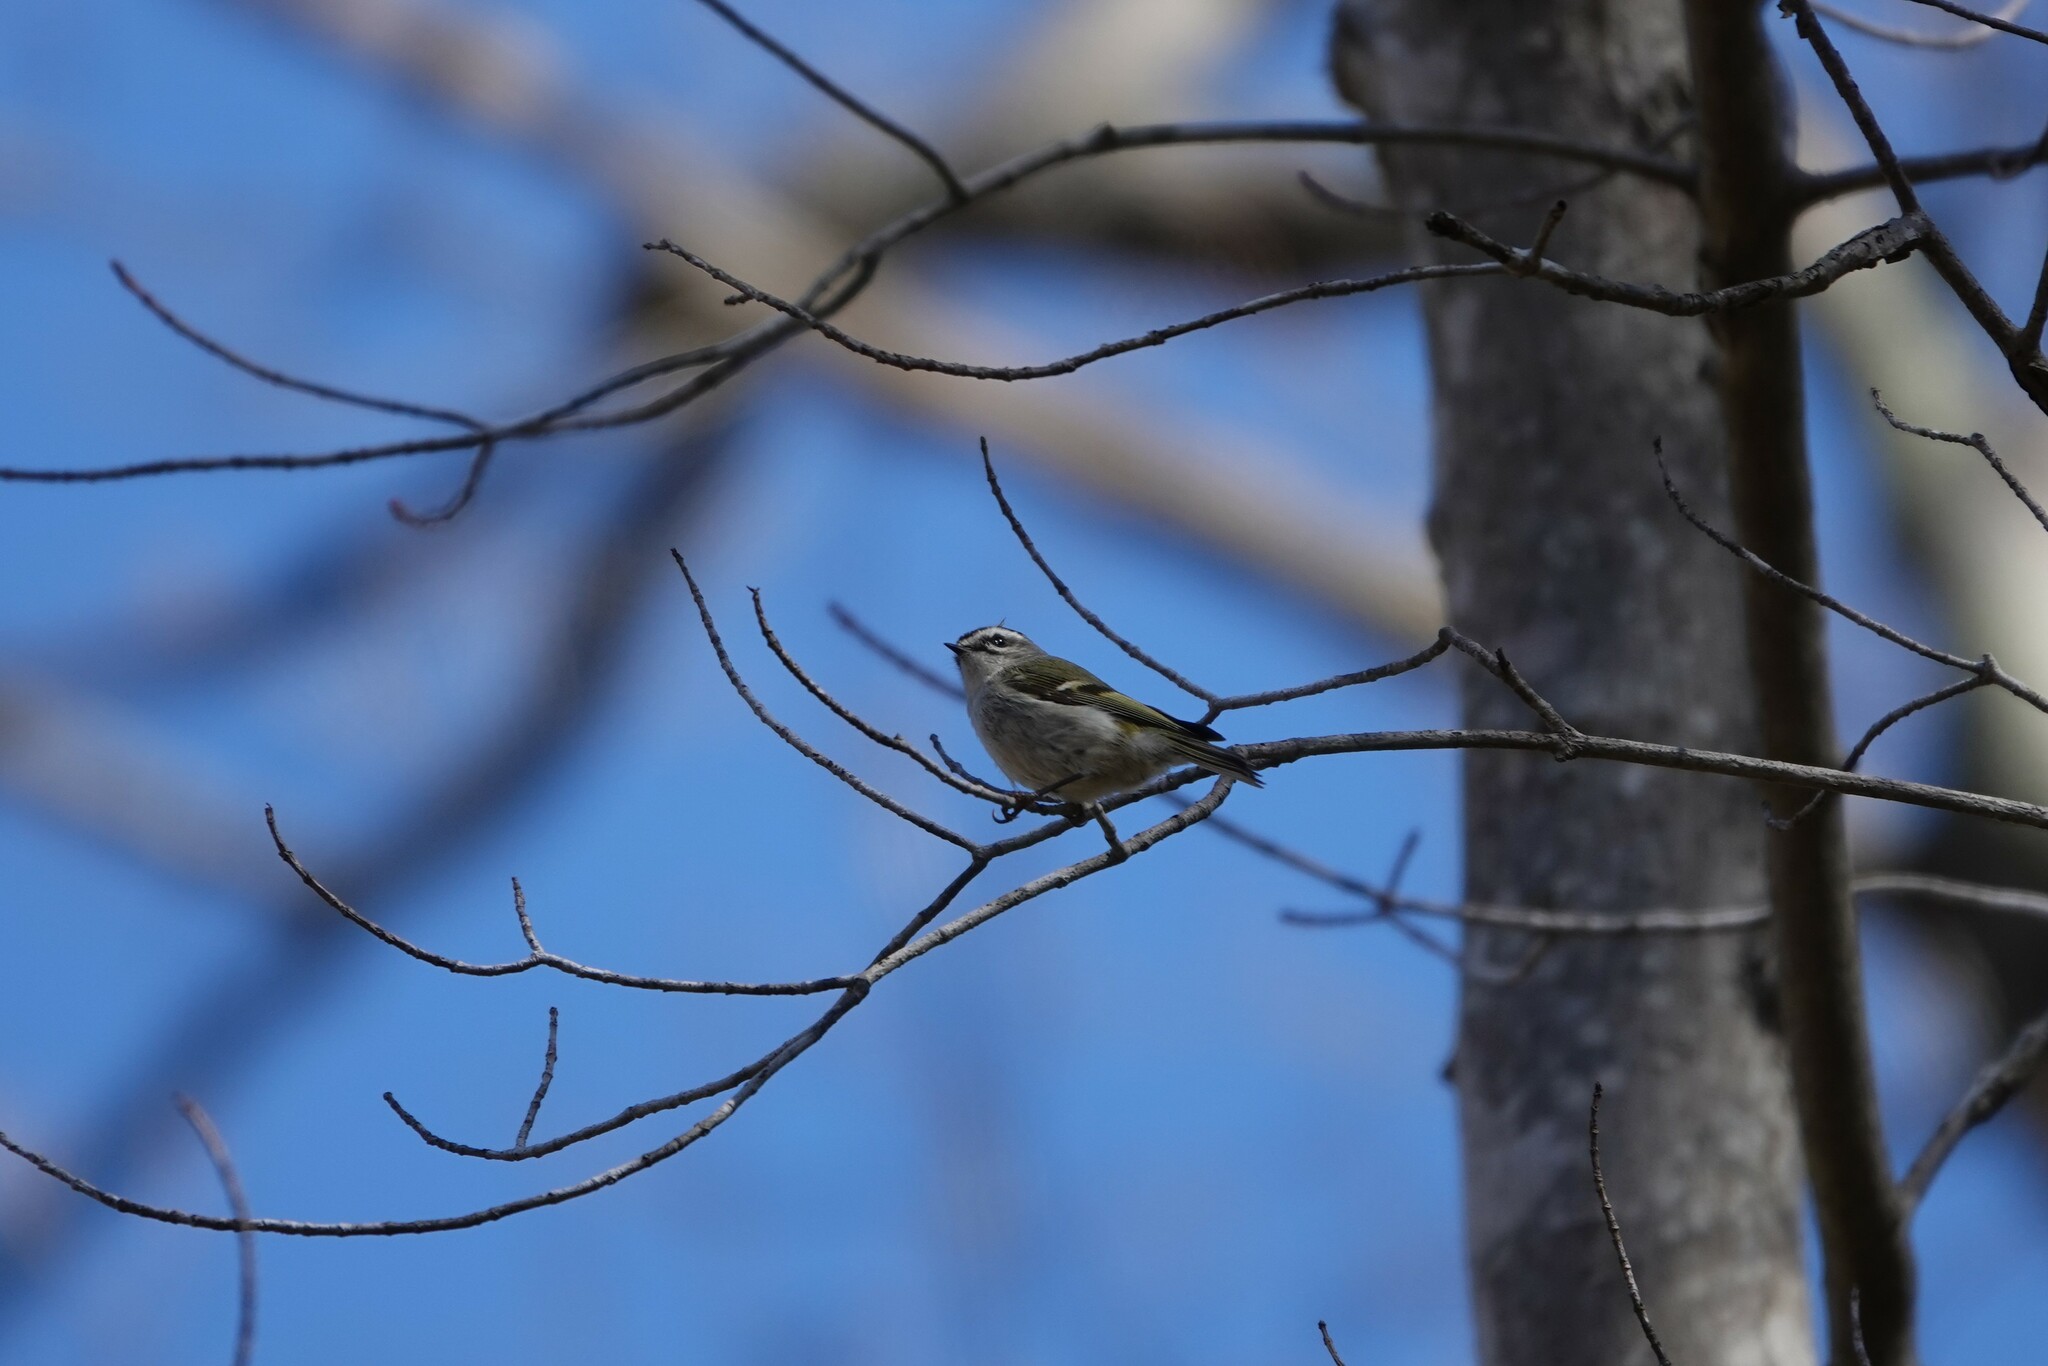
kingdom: Animalia
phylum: Chordata
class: Aves
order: Passeriformes
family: Regulidae
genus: Regulus
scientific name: Regulus satrapa
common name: Golden-crowned kinglet
